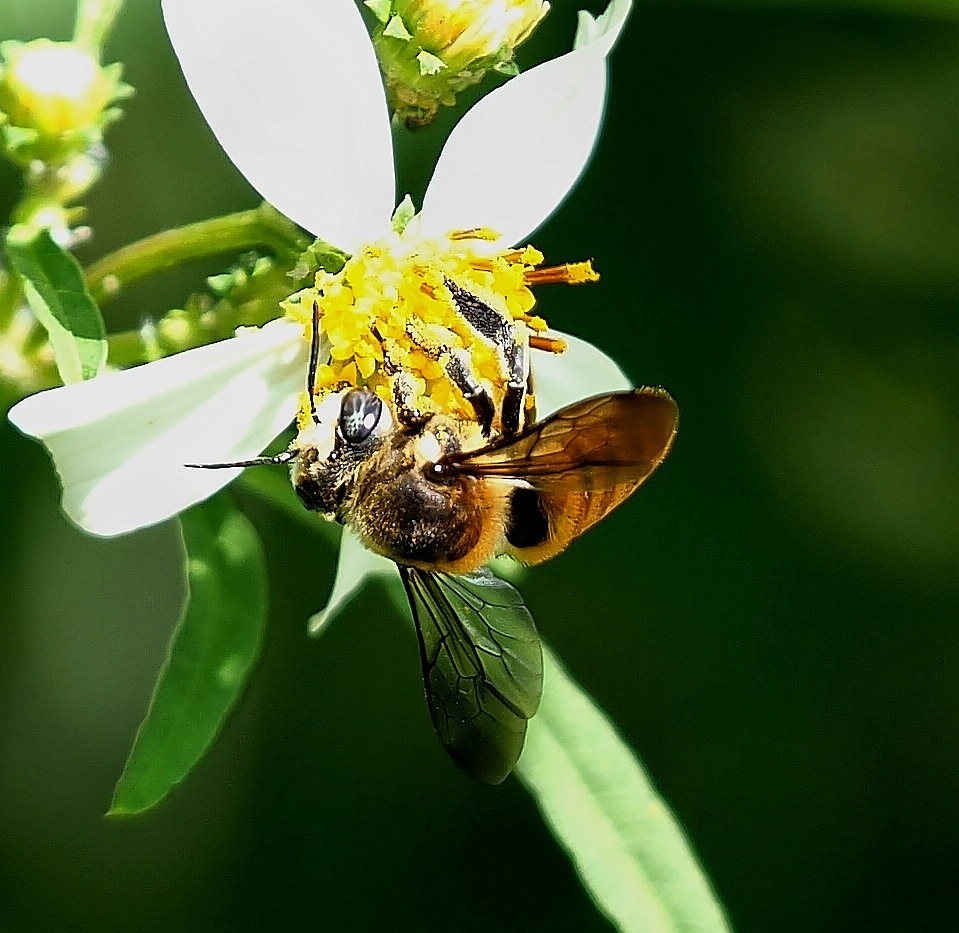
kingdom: Animalia
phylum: Arthropoda
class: Insecta
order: Hymenoptera
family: Megachilidae
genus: Megachile
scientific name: Megachile bicolor
